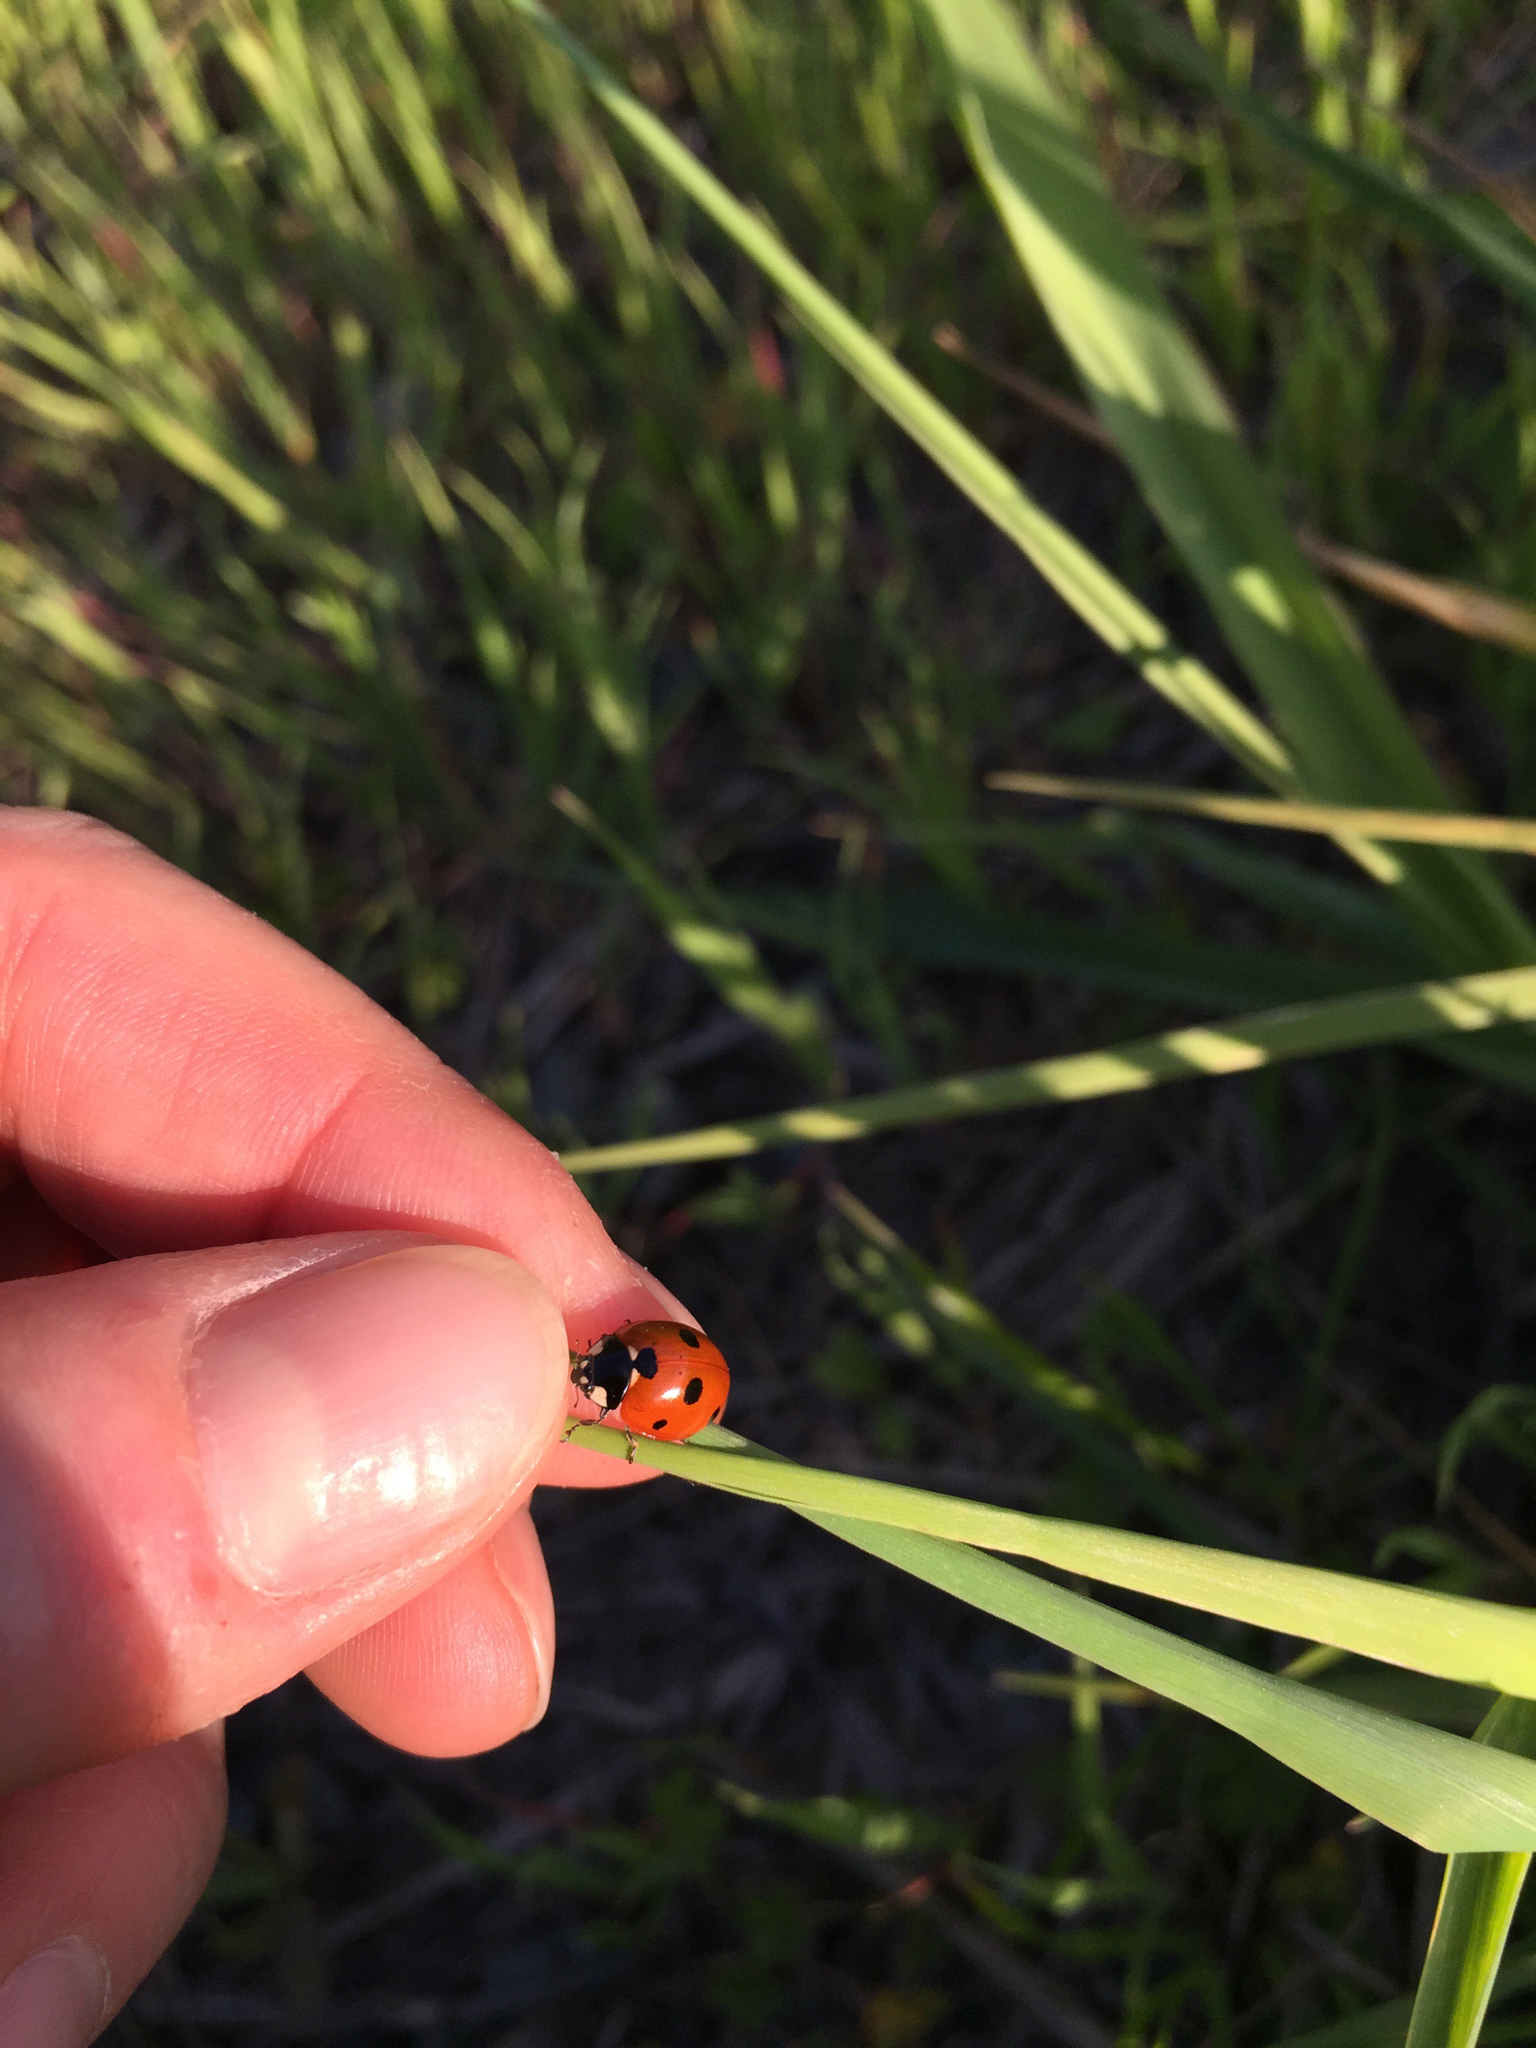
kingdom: Animalia
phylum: Arthropoda
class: Insecta
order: Coleoptera
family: Coccinellidae
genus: Coccinella
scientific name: Coccinella septempunctata
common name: Sevenspotted lady beetle
